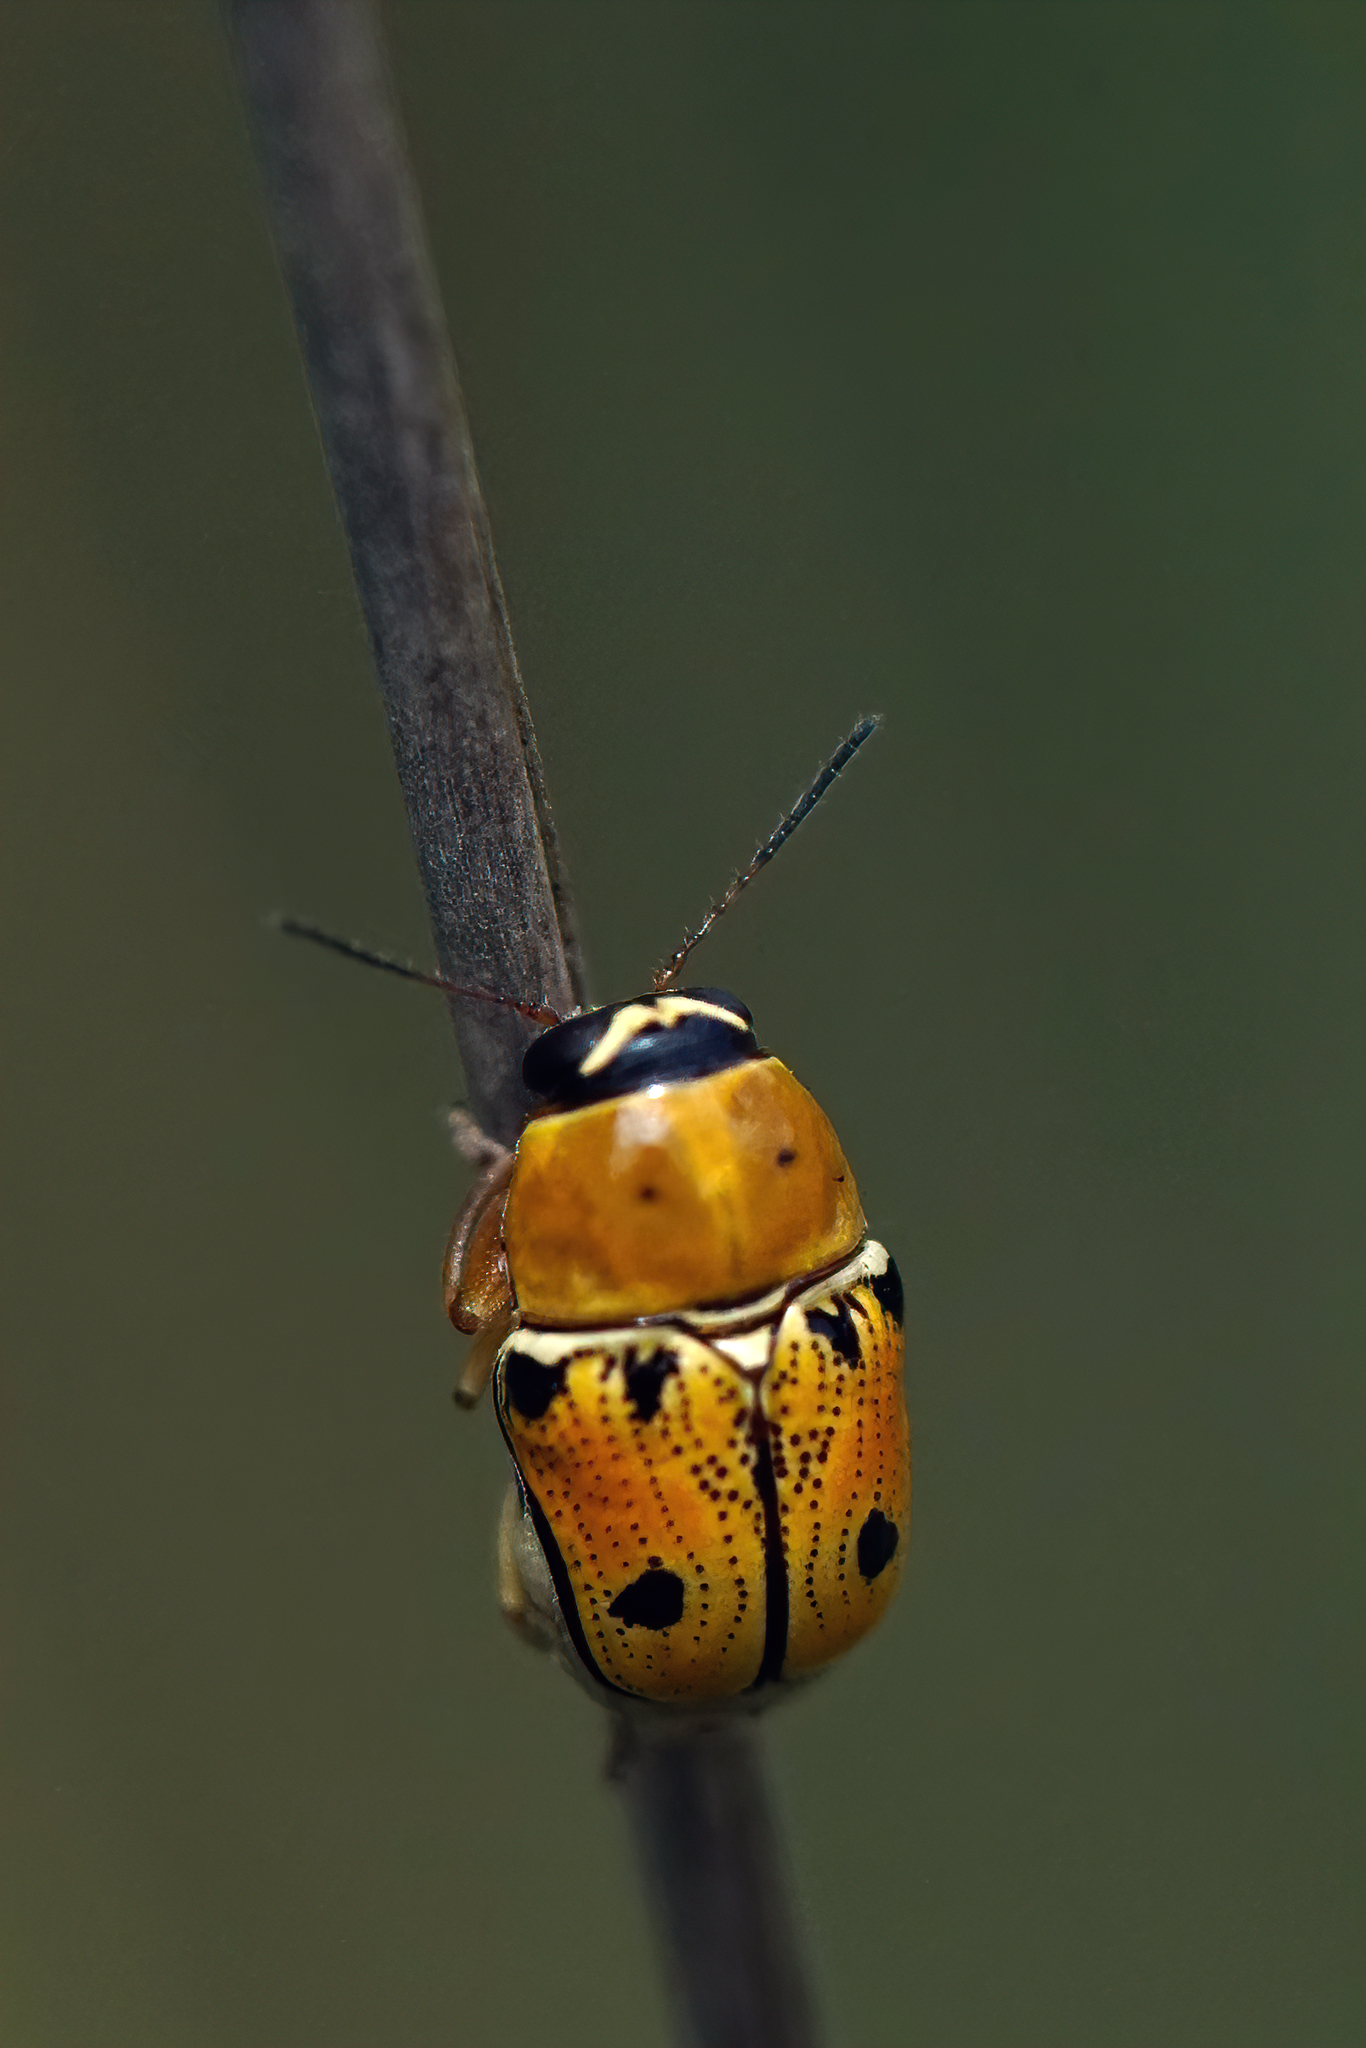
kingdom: Animalia
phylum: Arthropoda
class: Insecta
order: Coleoptera
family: Chrysomelidae
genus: Griburius
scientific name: Griburius larvatus
